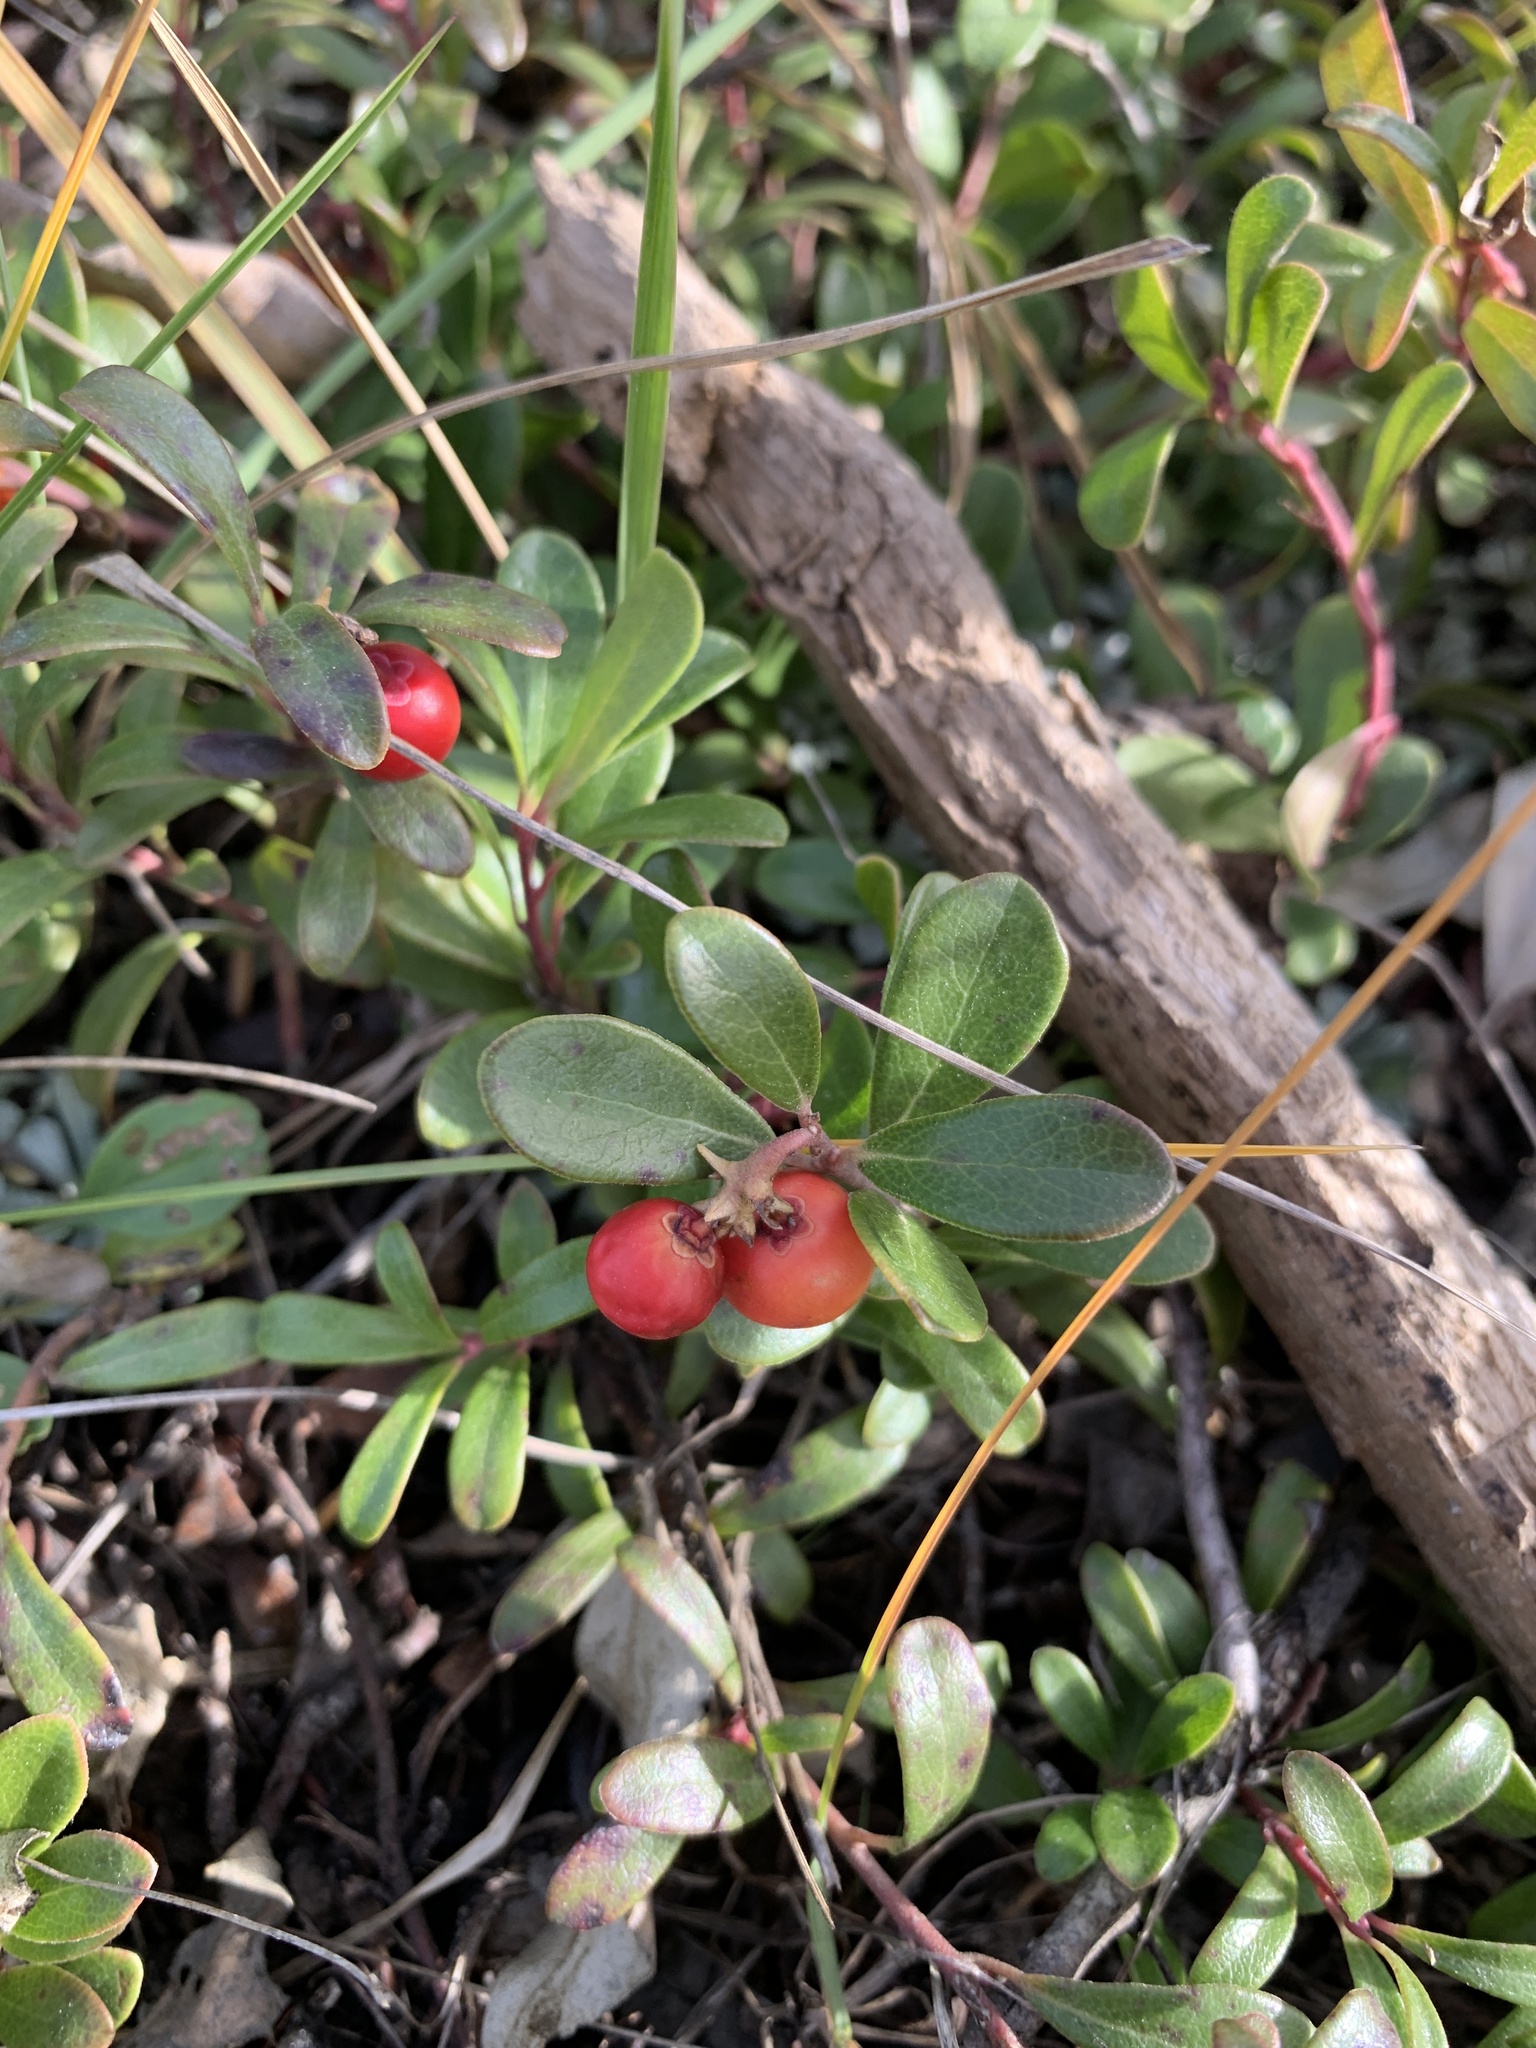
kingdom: Plantae
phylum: Tracheophyta
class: Magnoliopsida
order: Ericales
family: Ericaceae
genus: Arctostaphylos
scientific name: Arctostaphylos uva-ursi
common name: Bearberry
